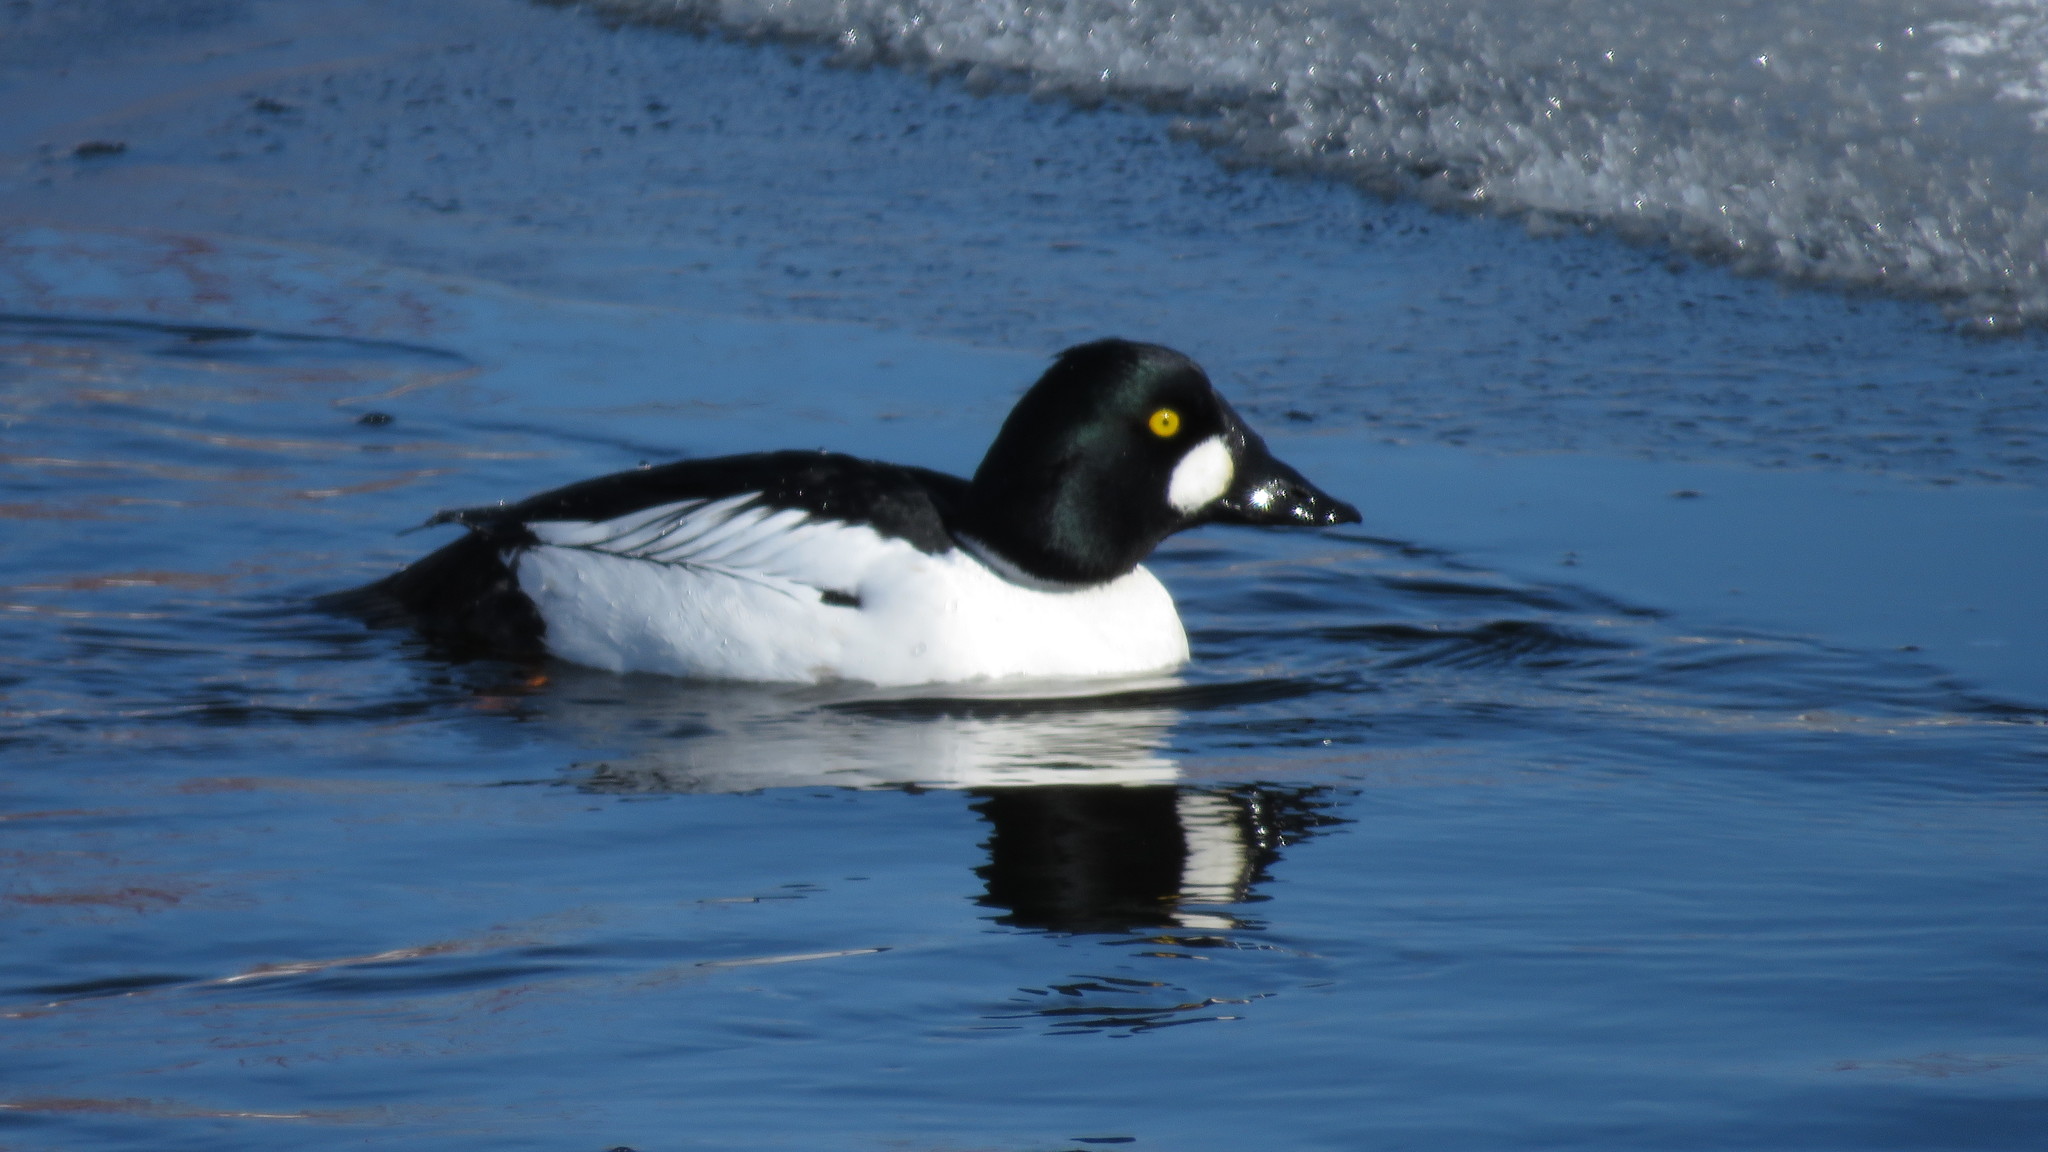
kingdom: Animalia
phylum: Chordata
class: Aves
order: Anseriformes
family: Anatidae
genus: Bucephala
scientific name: Bucephala clangula
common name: Common goldeneye
